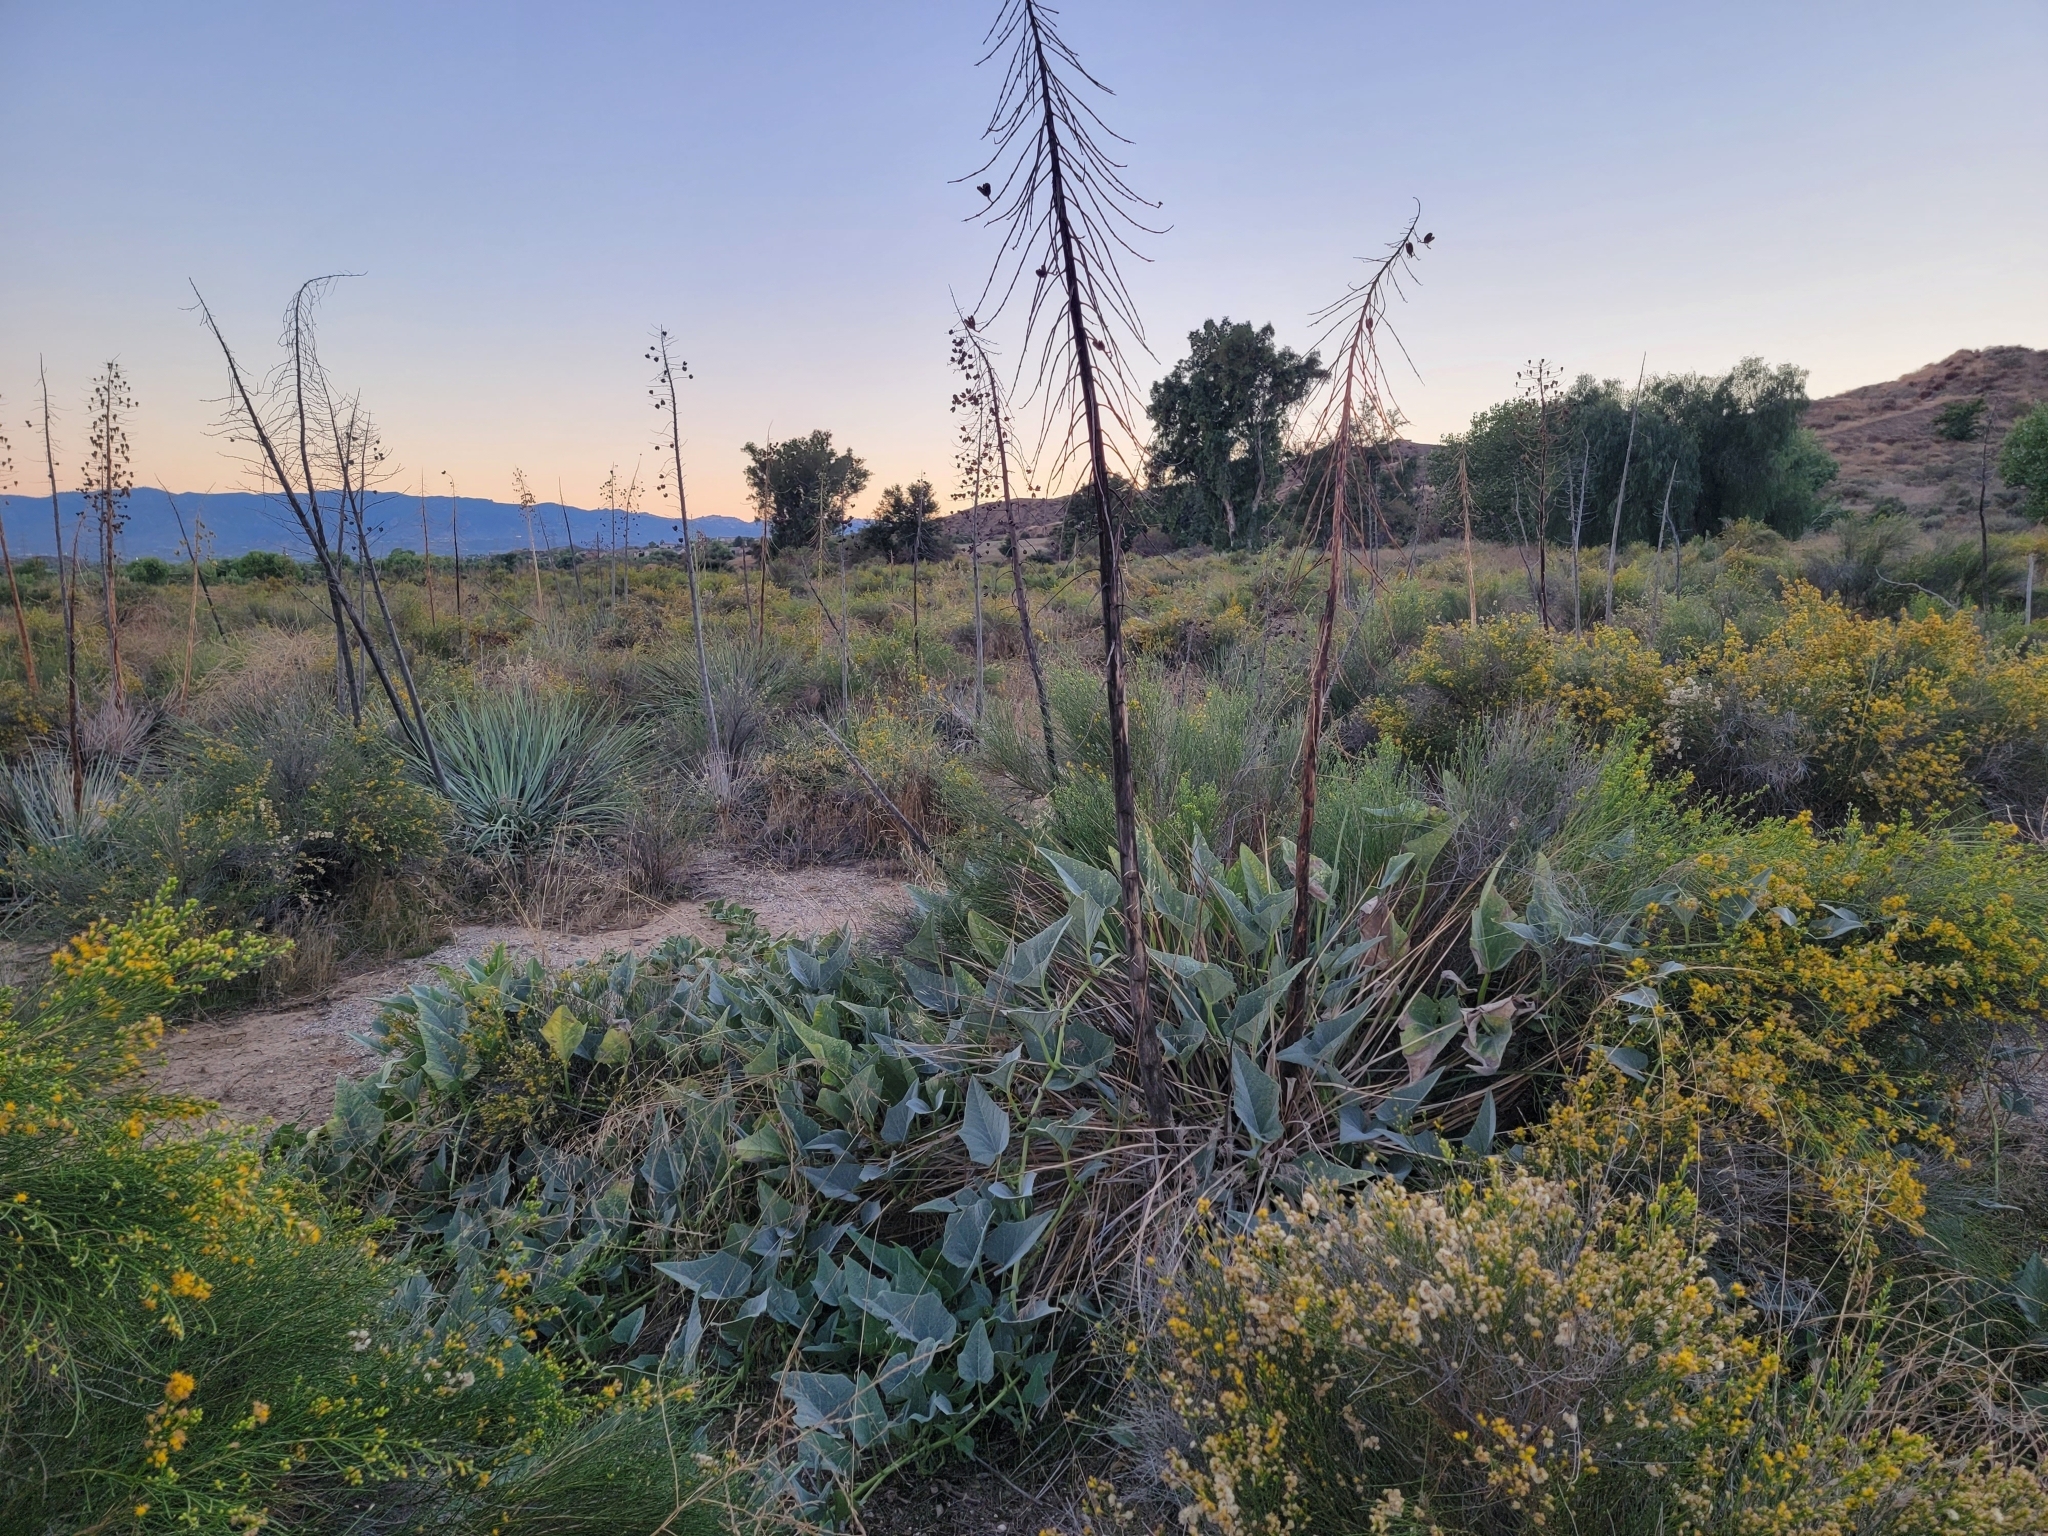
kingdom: Plantae
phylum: Tracheophyta
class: Magnoliopsida
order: Cucurbitales
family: Cucurbitaceae
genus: Cucurbita
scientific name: Cucurbita foetidissima
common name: Buffalo gourd
